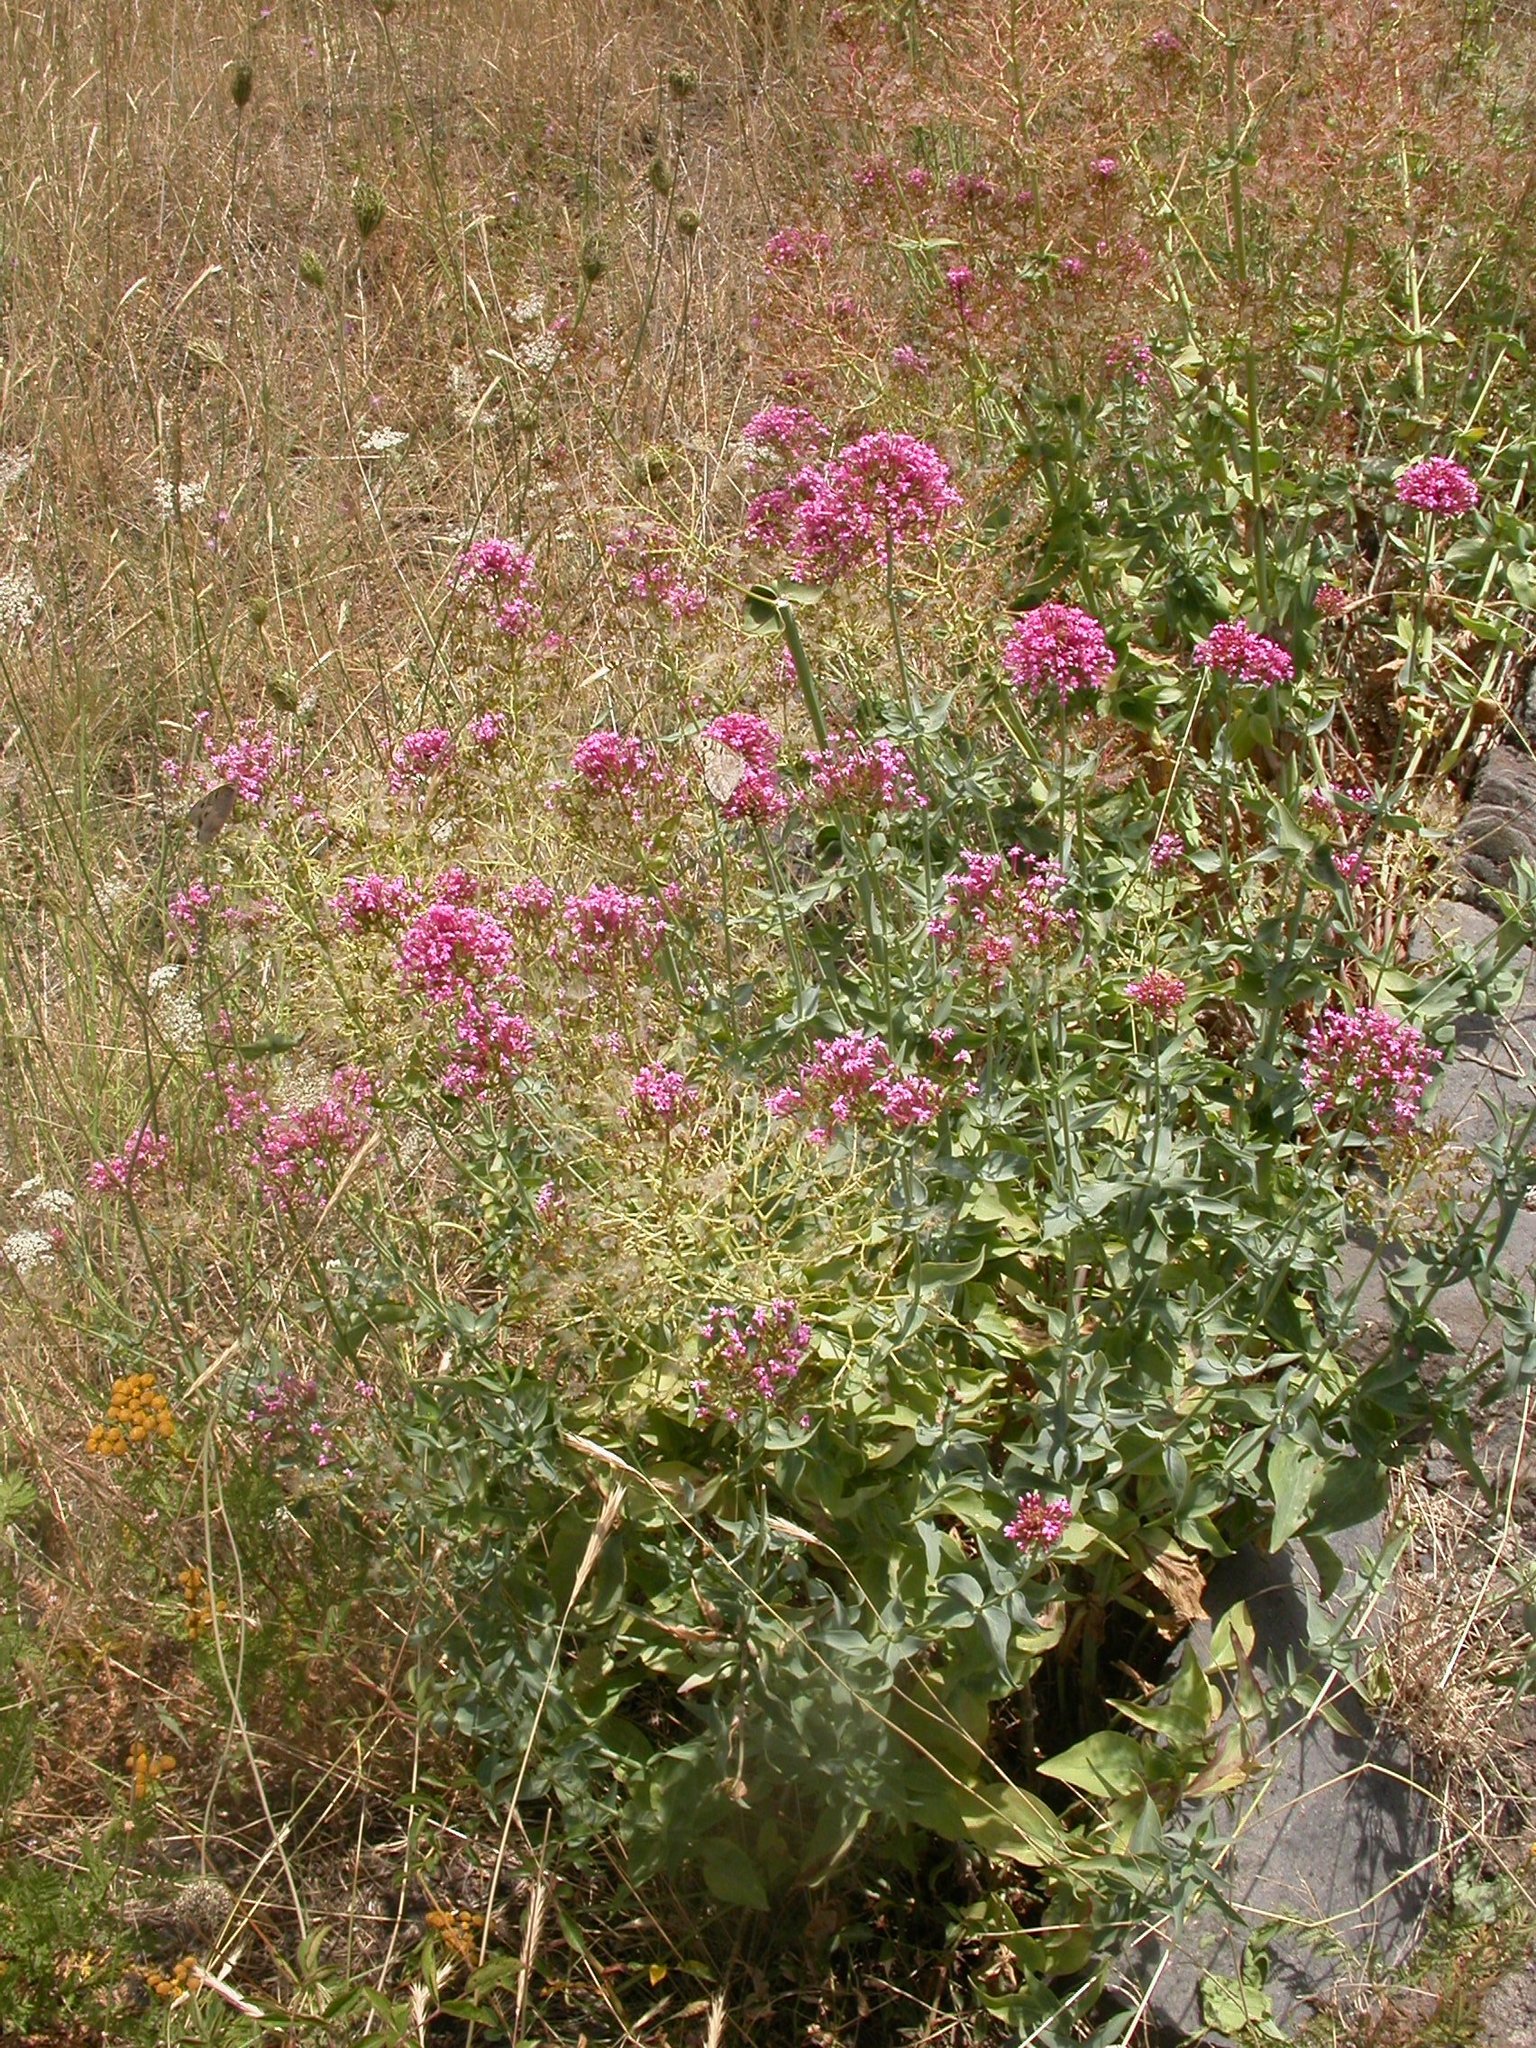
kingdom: Plantae
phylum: Tracheophyta
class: Magnoliopsida
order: Dipsacales
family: Caprifoliaceae
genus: Centranthus
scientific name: Centranthus ruber
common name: Red valerian
